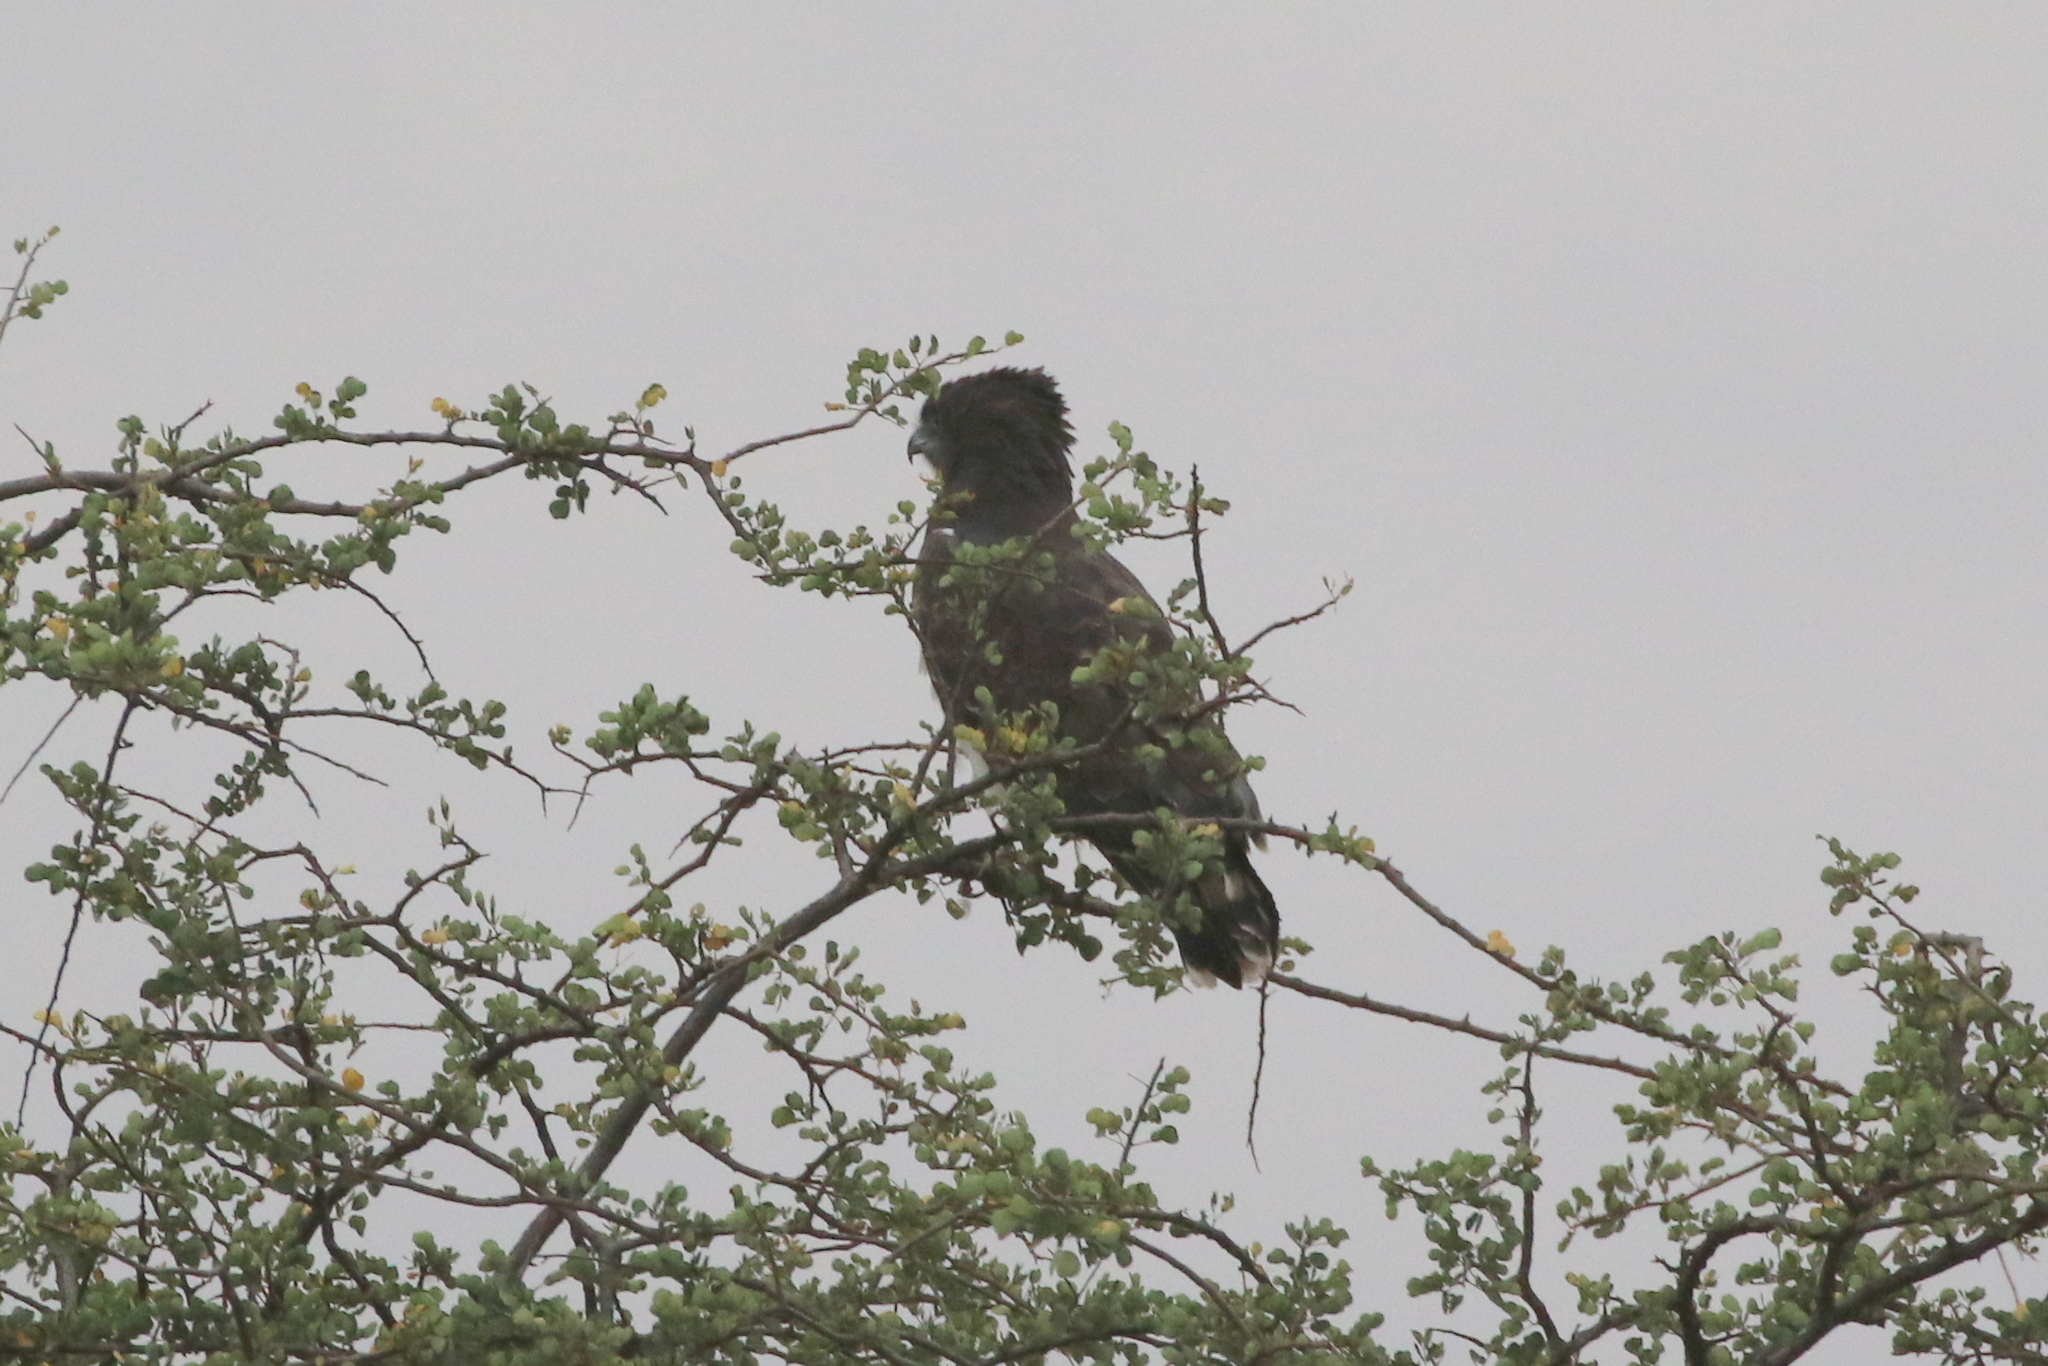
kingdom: Animalia
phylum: Chordata
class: Aves
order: Accipitriformes
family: Accipitridae
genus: Circaetus
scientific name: Circaetus pectoralis
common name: Black-chested snake eagle
